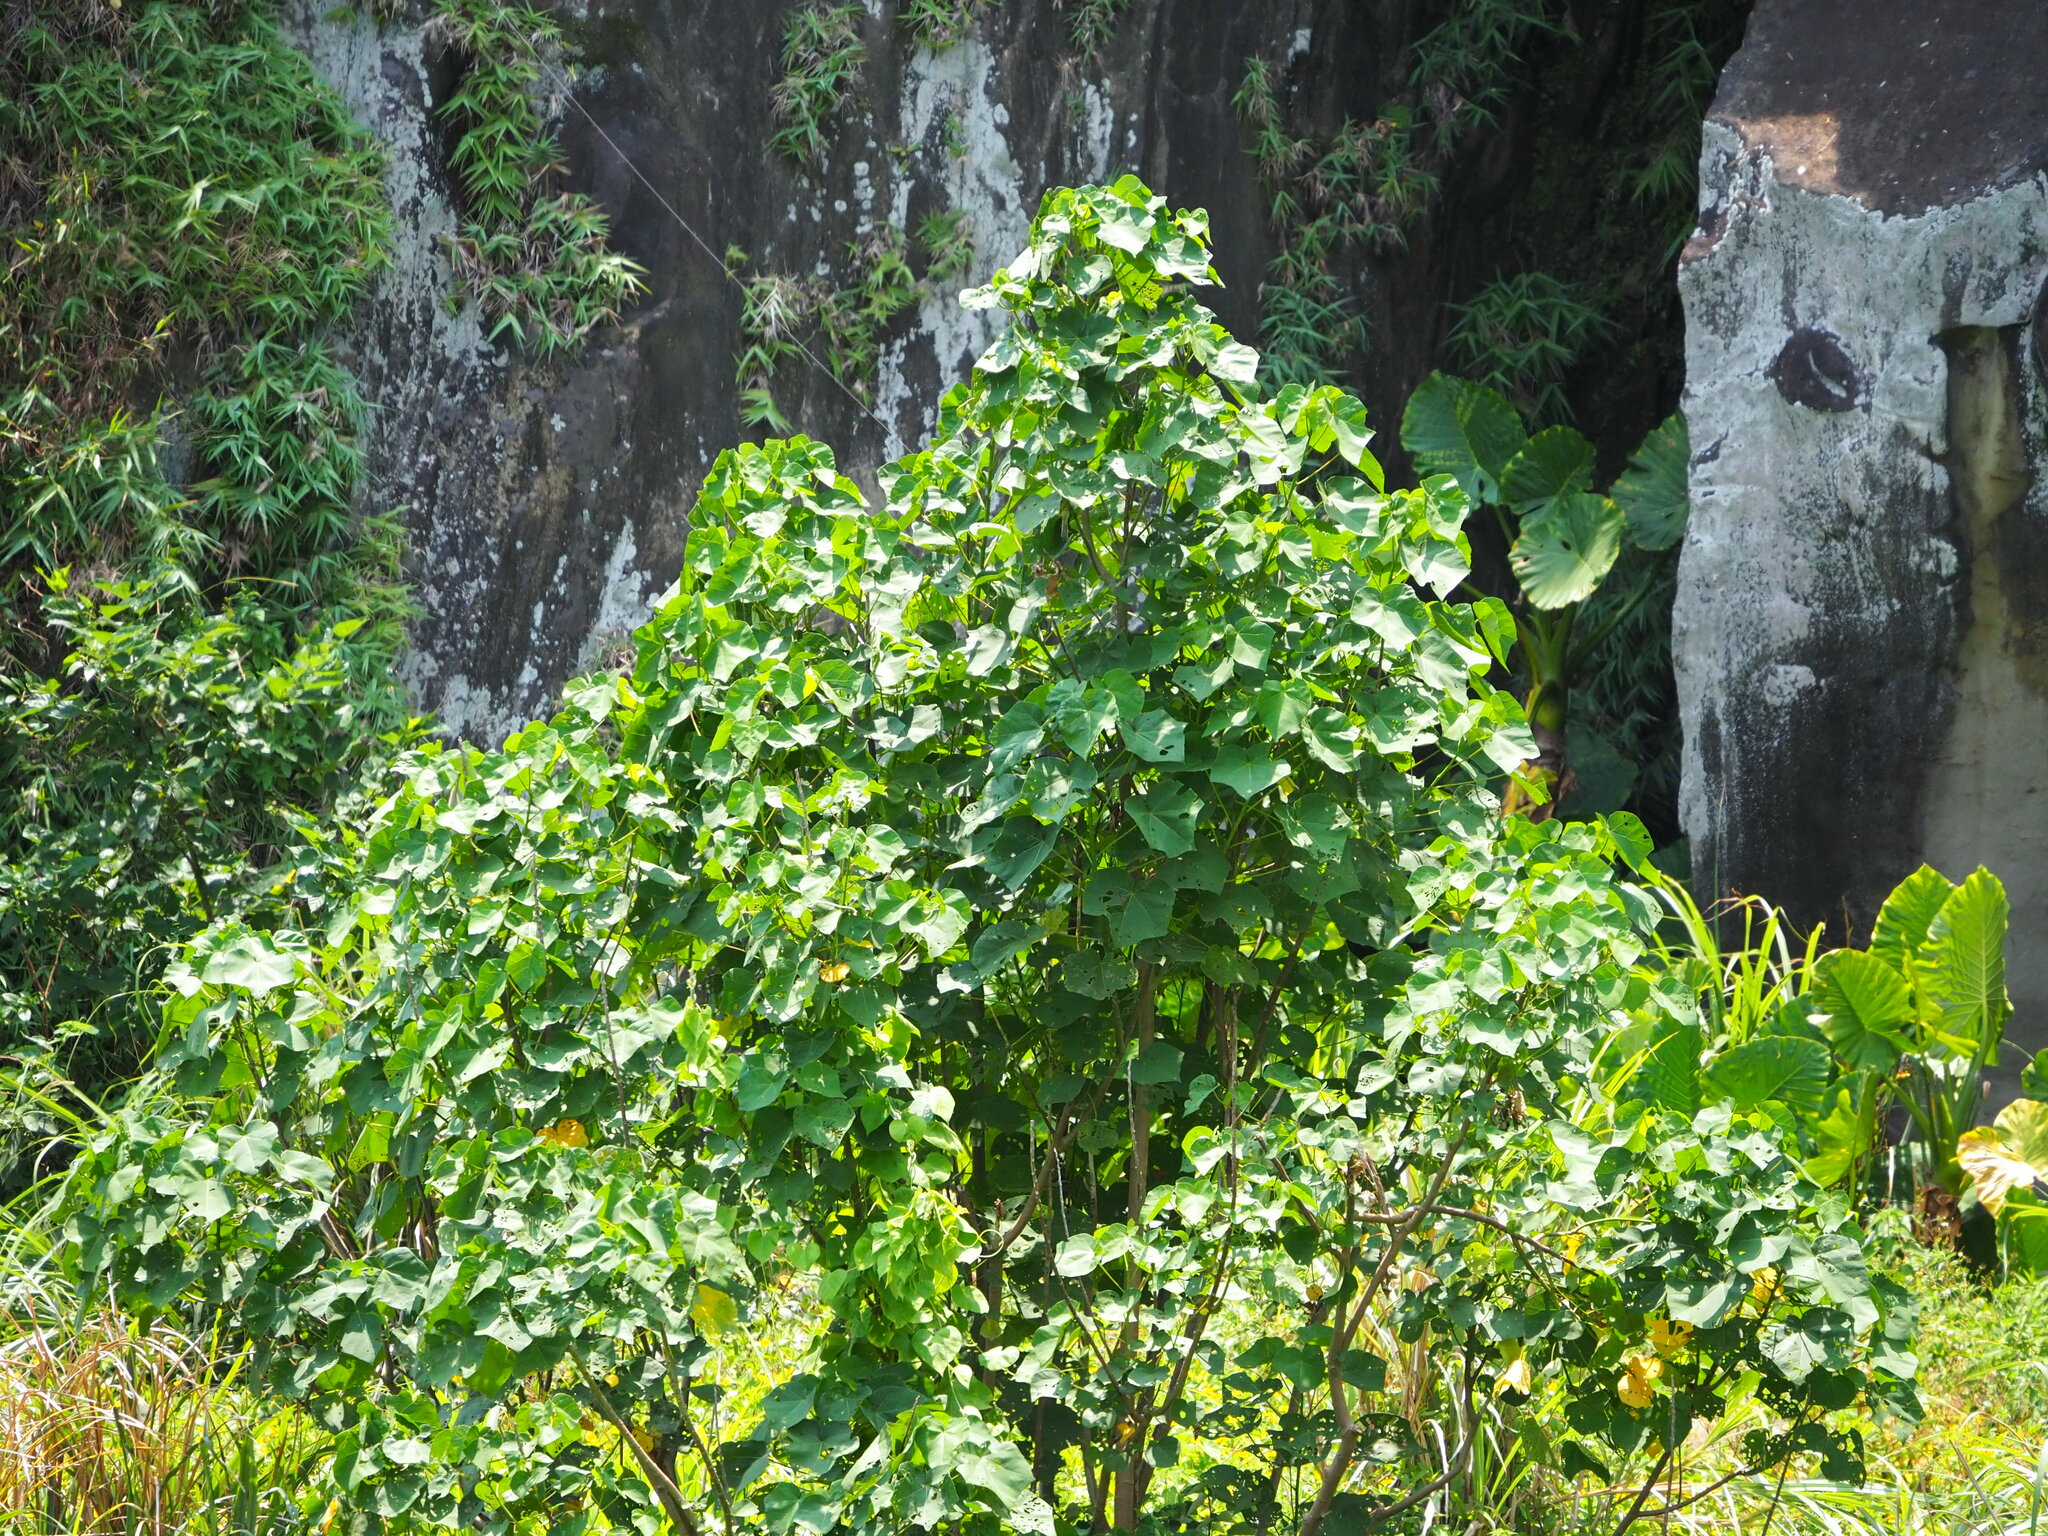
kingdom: Plantae
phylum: Tracheophyta
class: Magnoliopsida
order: Malvales
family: Malvaceae
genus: Talipariti
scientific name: Talipariti tiliaceum
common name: Sea hibiscus
